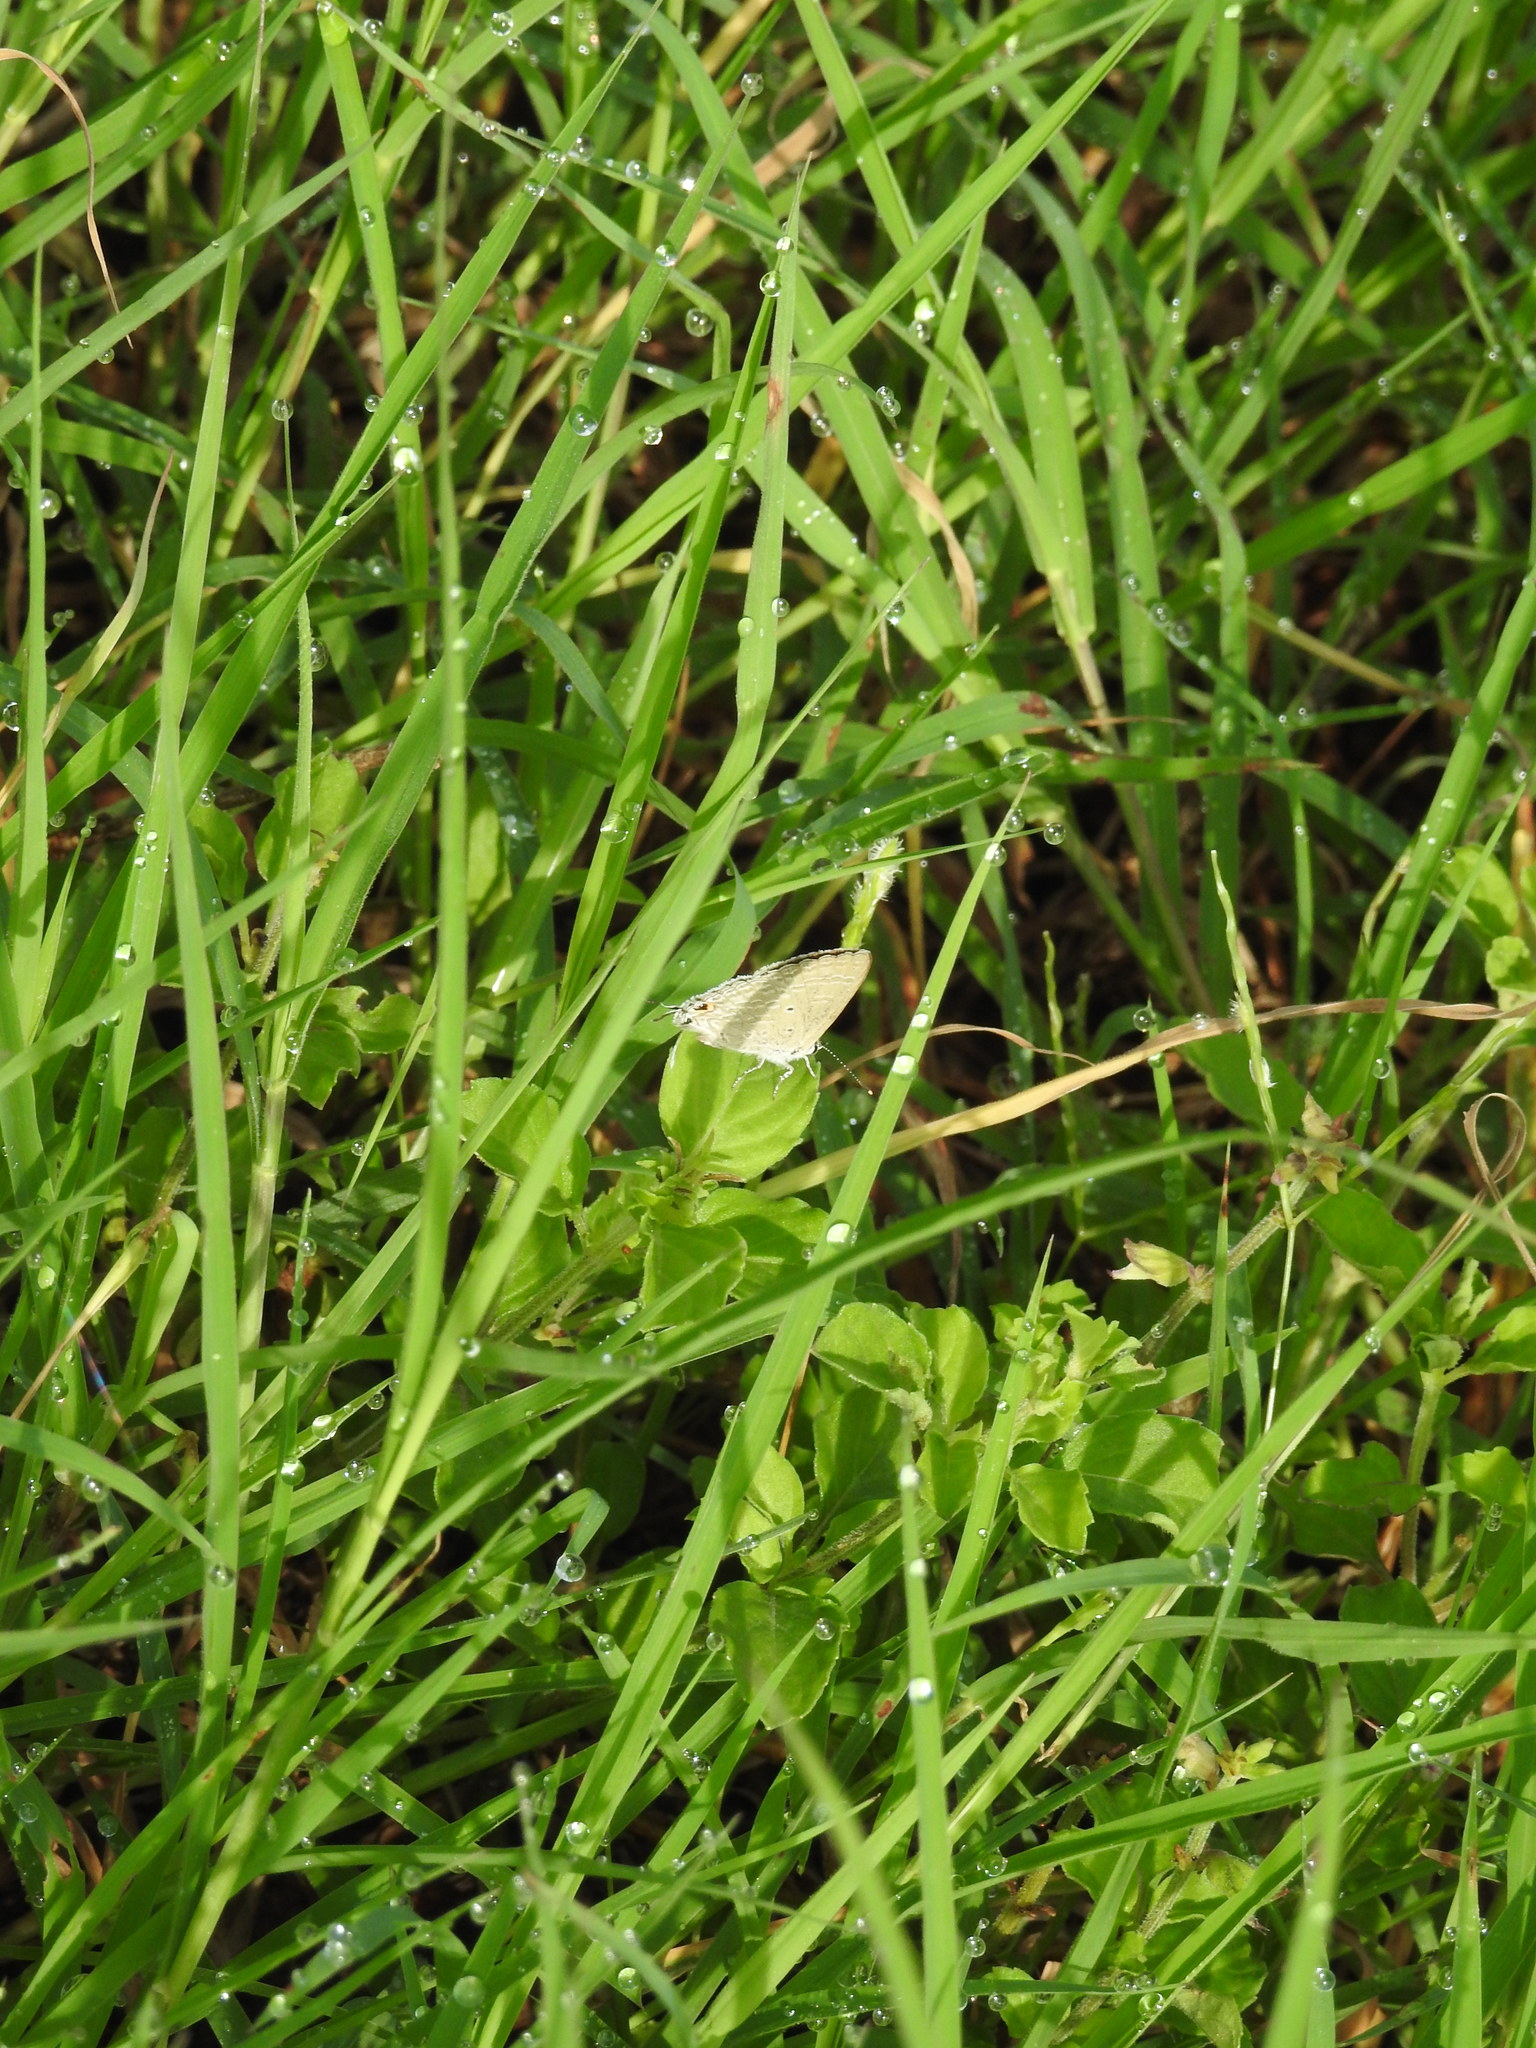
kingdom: Animalia
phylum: Arthropoda
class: Insecta
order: Lepidoptera
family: Lycaenidae
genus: Catochrysops
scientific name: Catochrysops strabo
